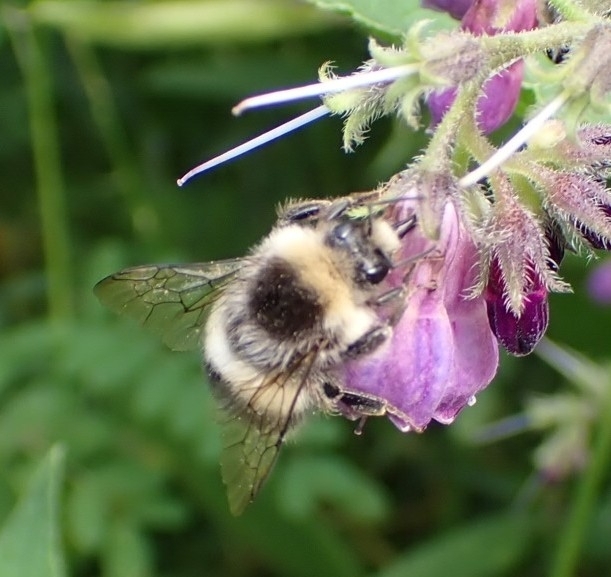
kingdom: Animalia
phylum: Arthropoda
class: Insecta
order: Hymenoptera
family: Apidae
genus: Bombus
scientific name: Bombus lucorum
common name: White-tailed bumblebee
